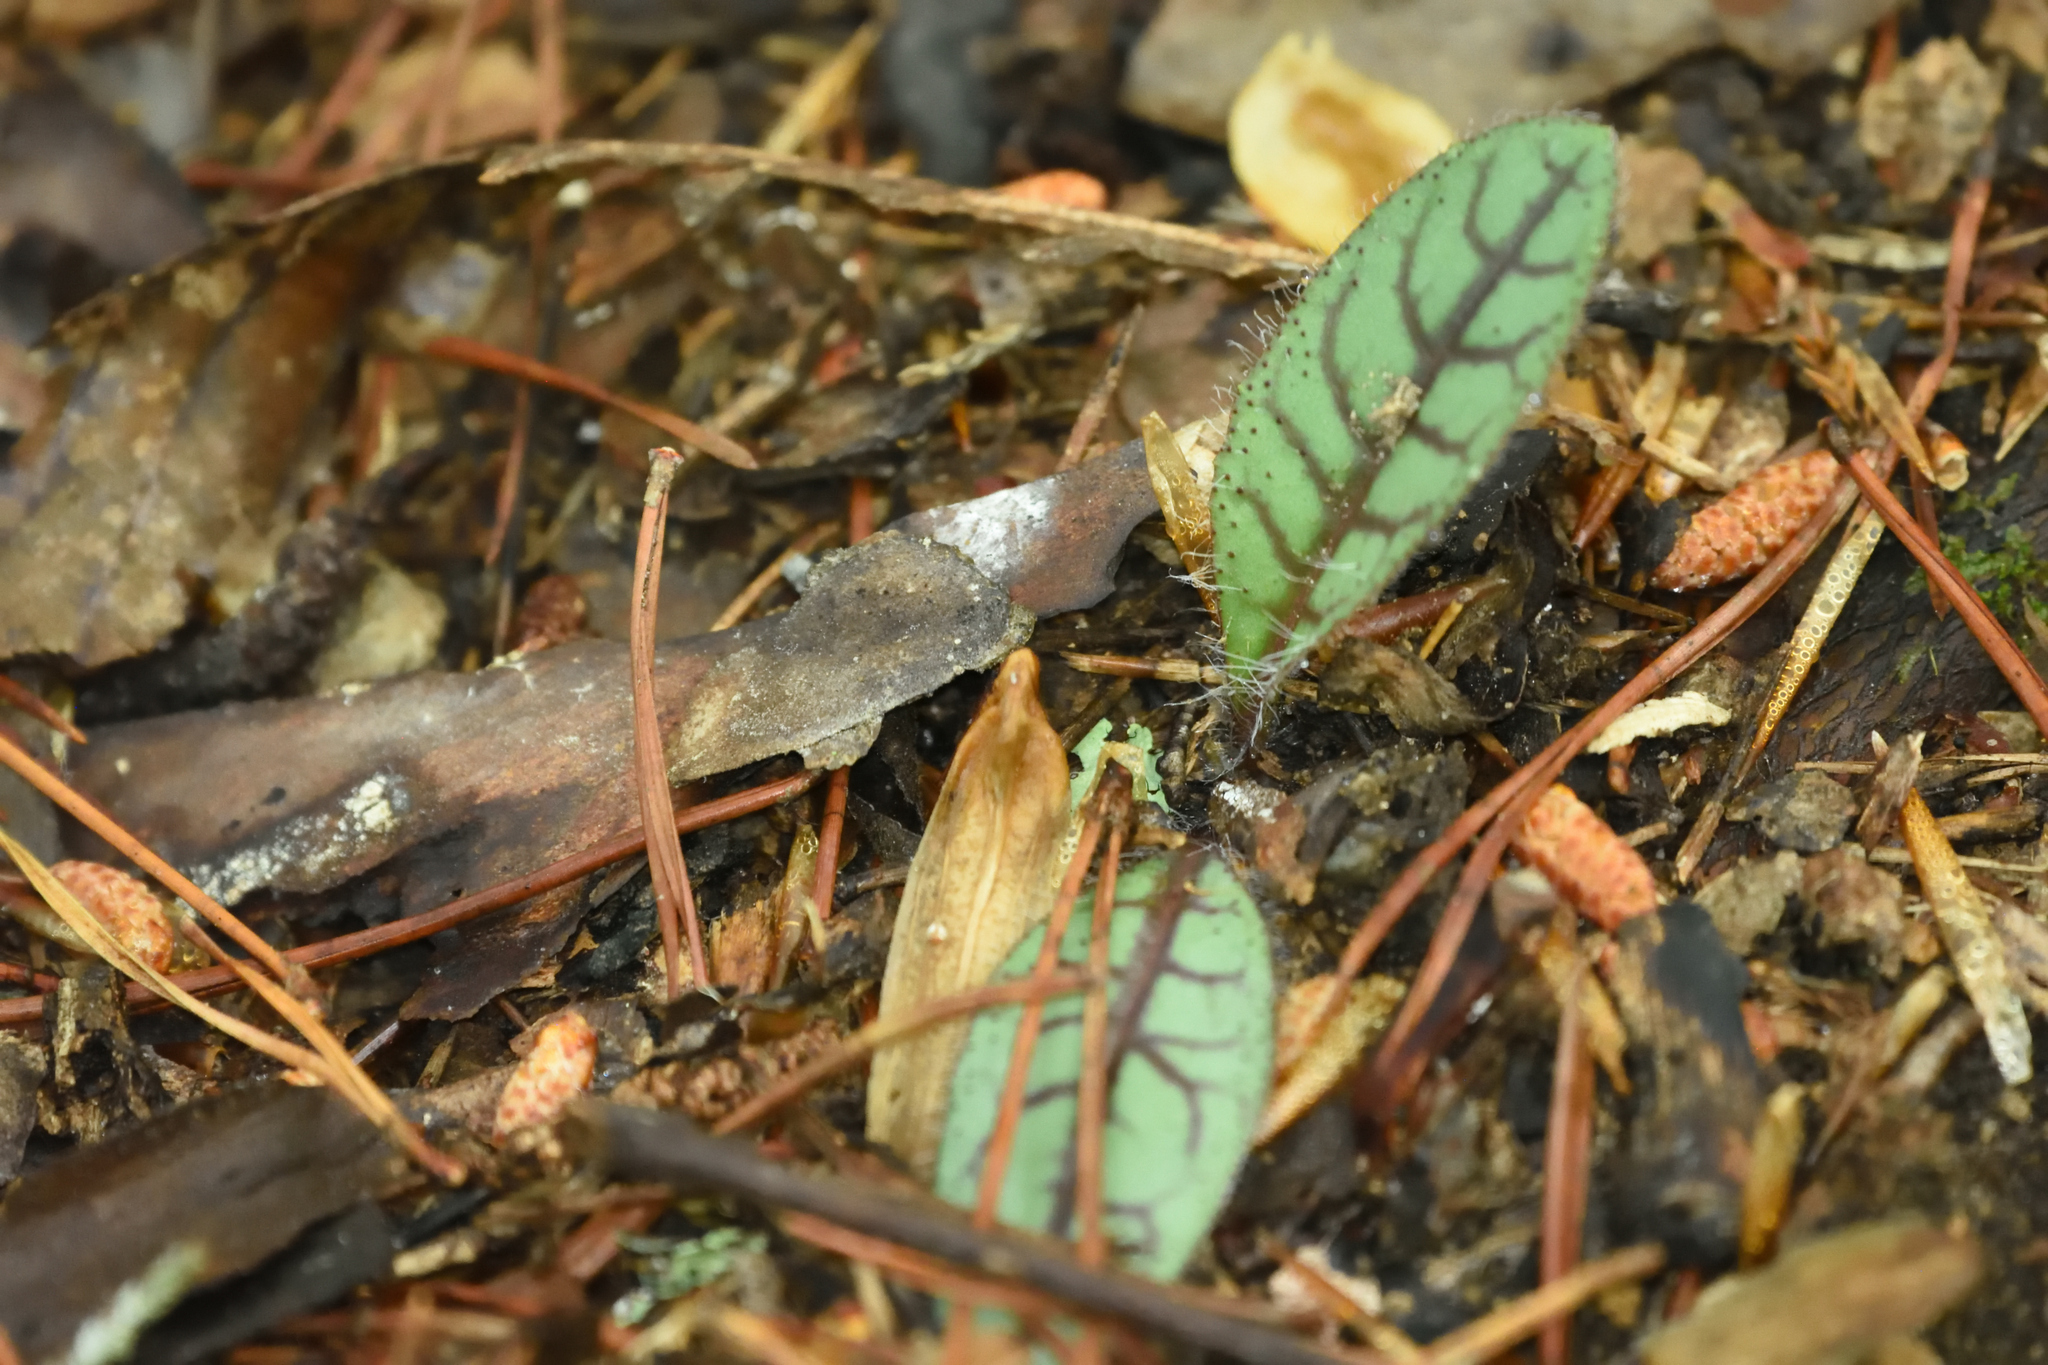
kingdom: Plantae
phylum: Tracheophyta
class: Magnoliopsida
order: Asterales
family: Asteraceae
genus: Hieracium
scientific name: Hieracium venosum
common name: Rattlesnake hawkweed
